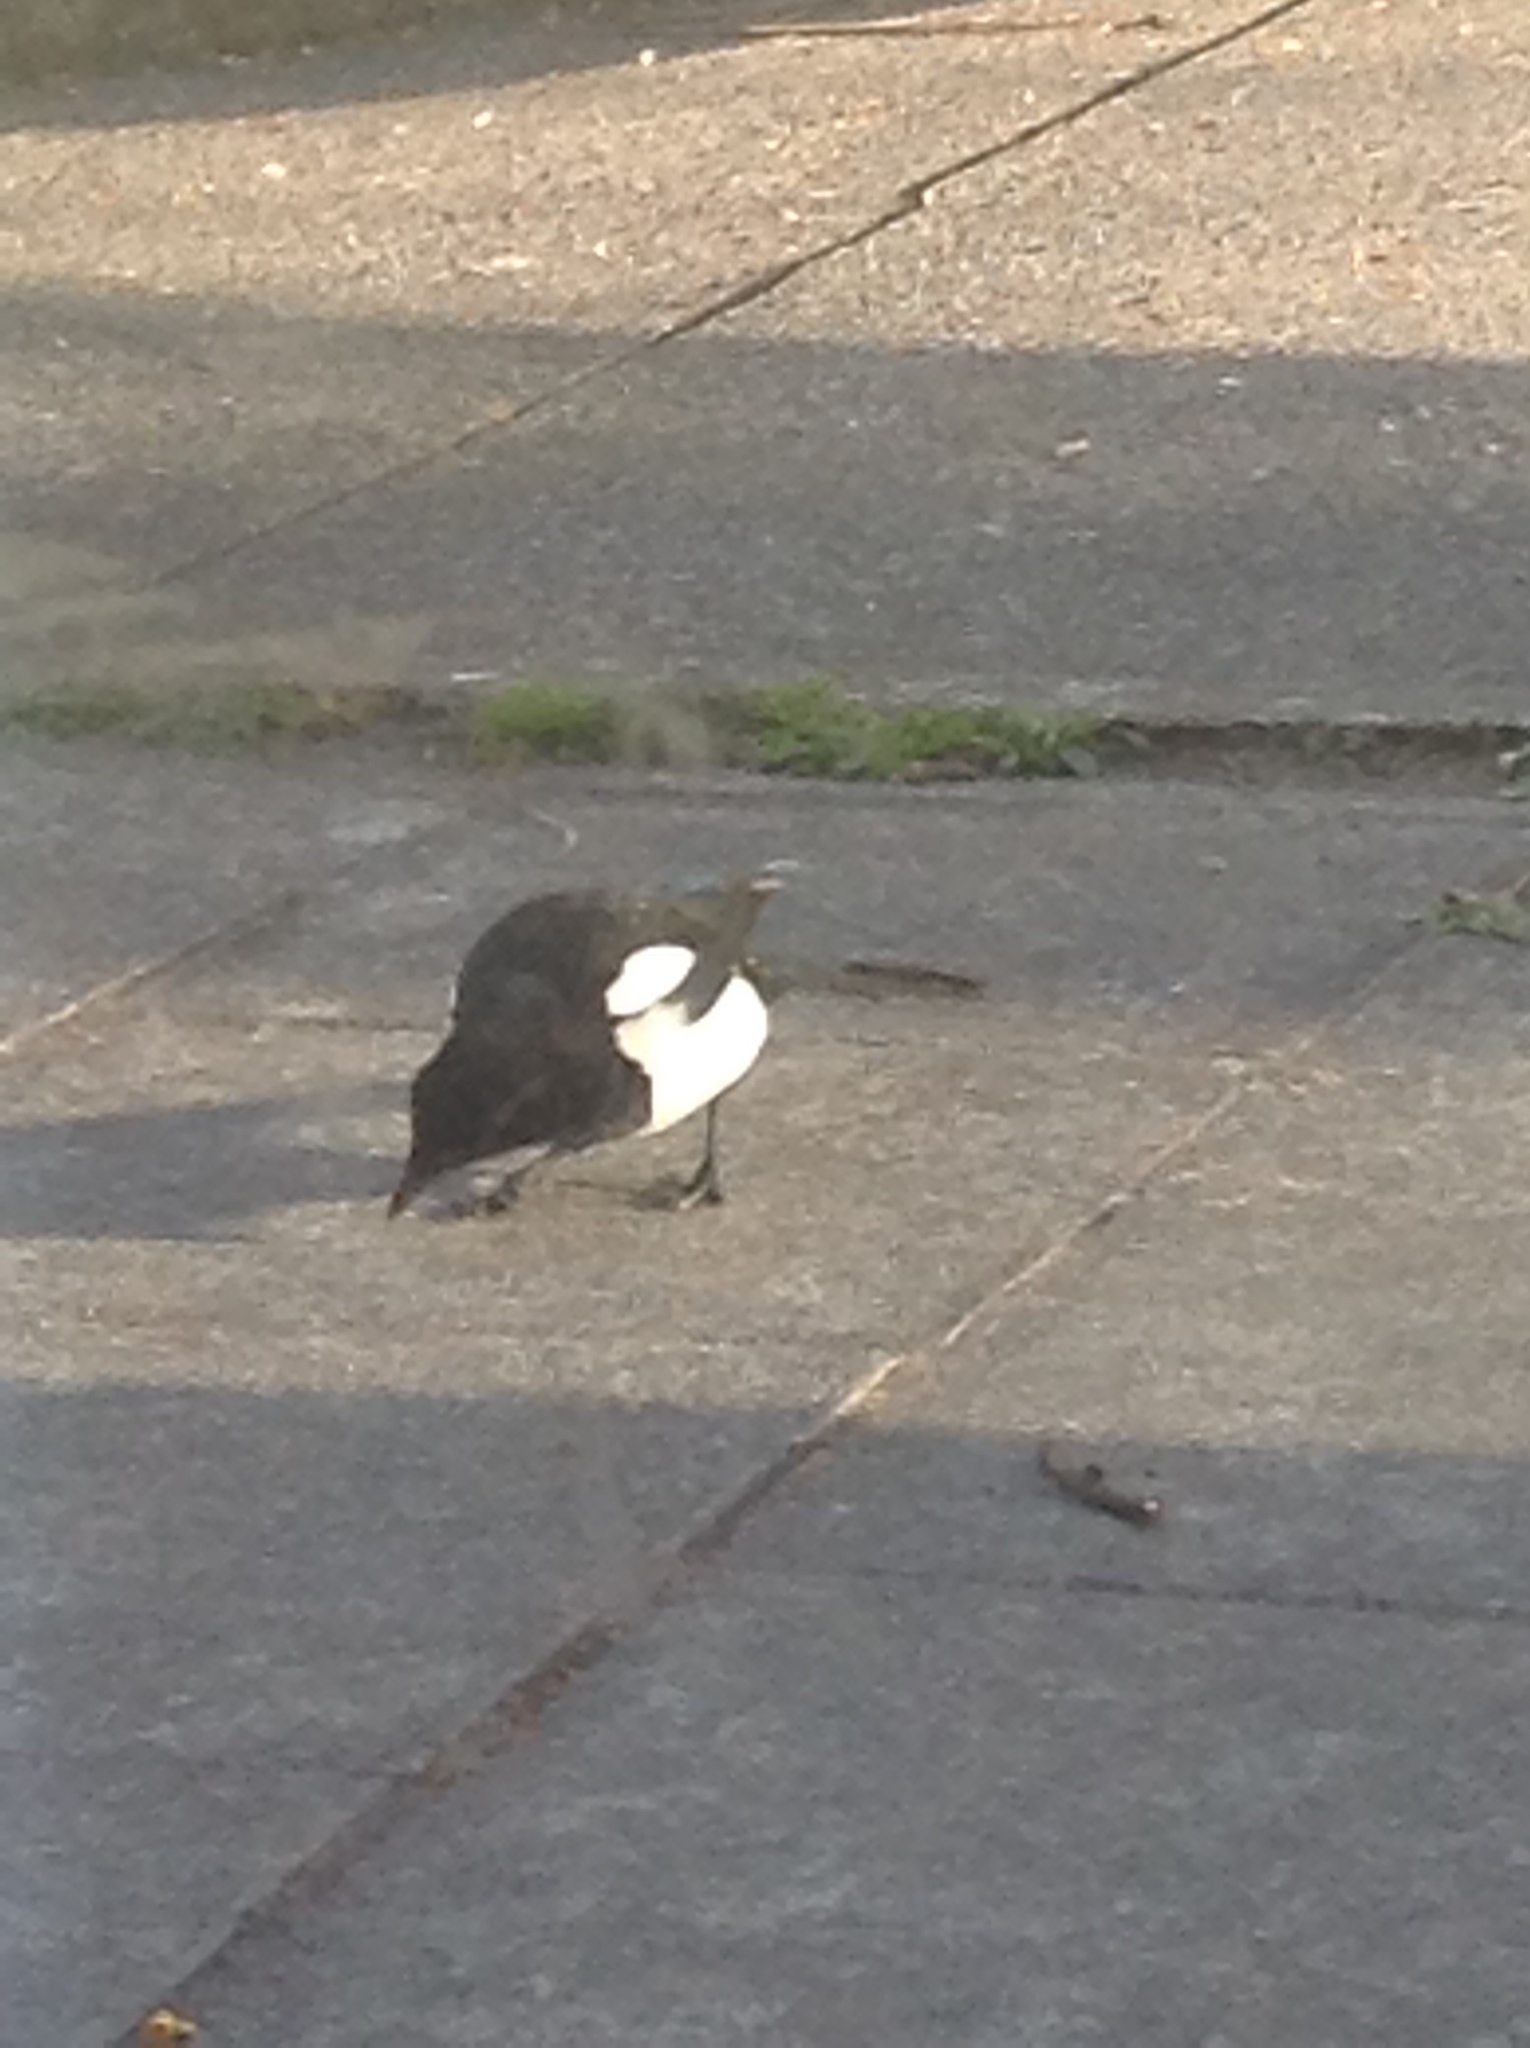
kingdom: Animalia
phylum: Chordata
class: Aves
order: Passeriformes
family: Corvidae
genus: Pica
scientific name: Pica pica
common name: Eurasian magpie
